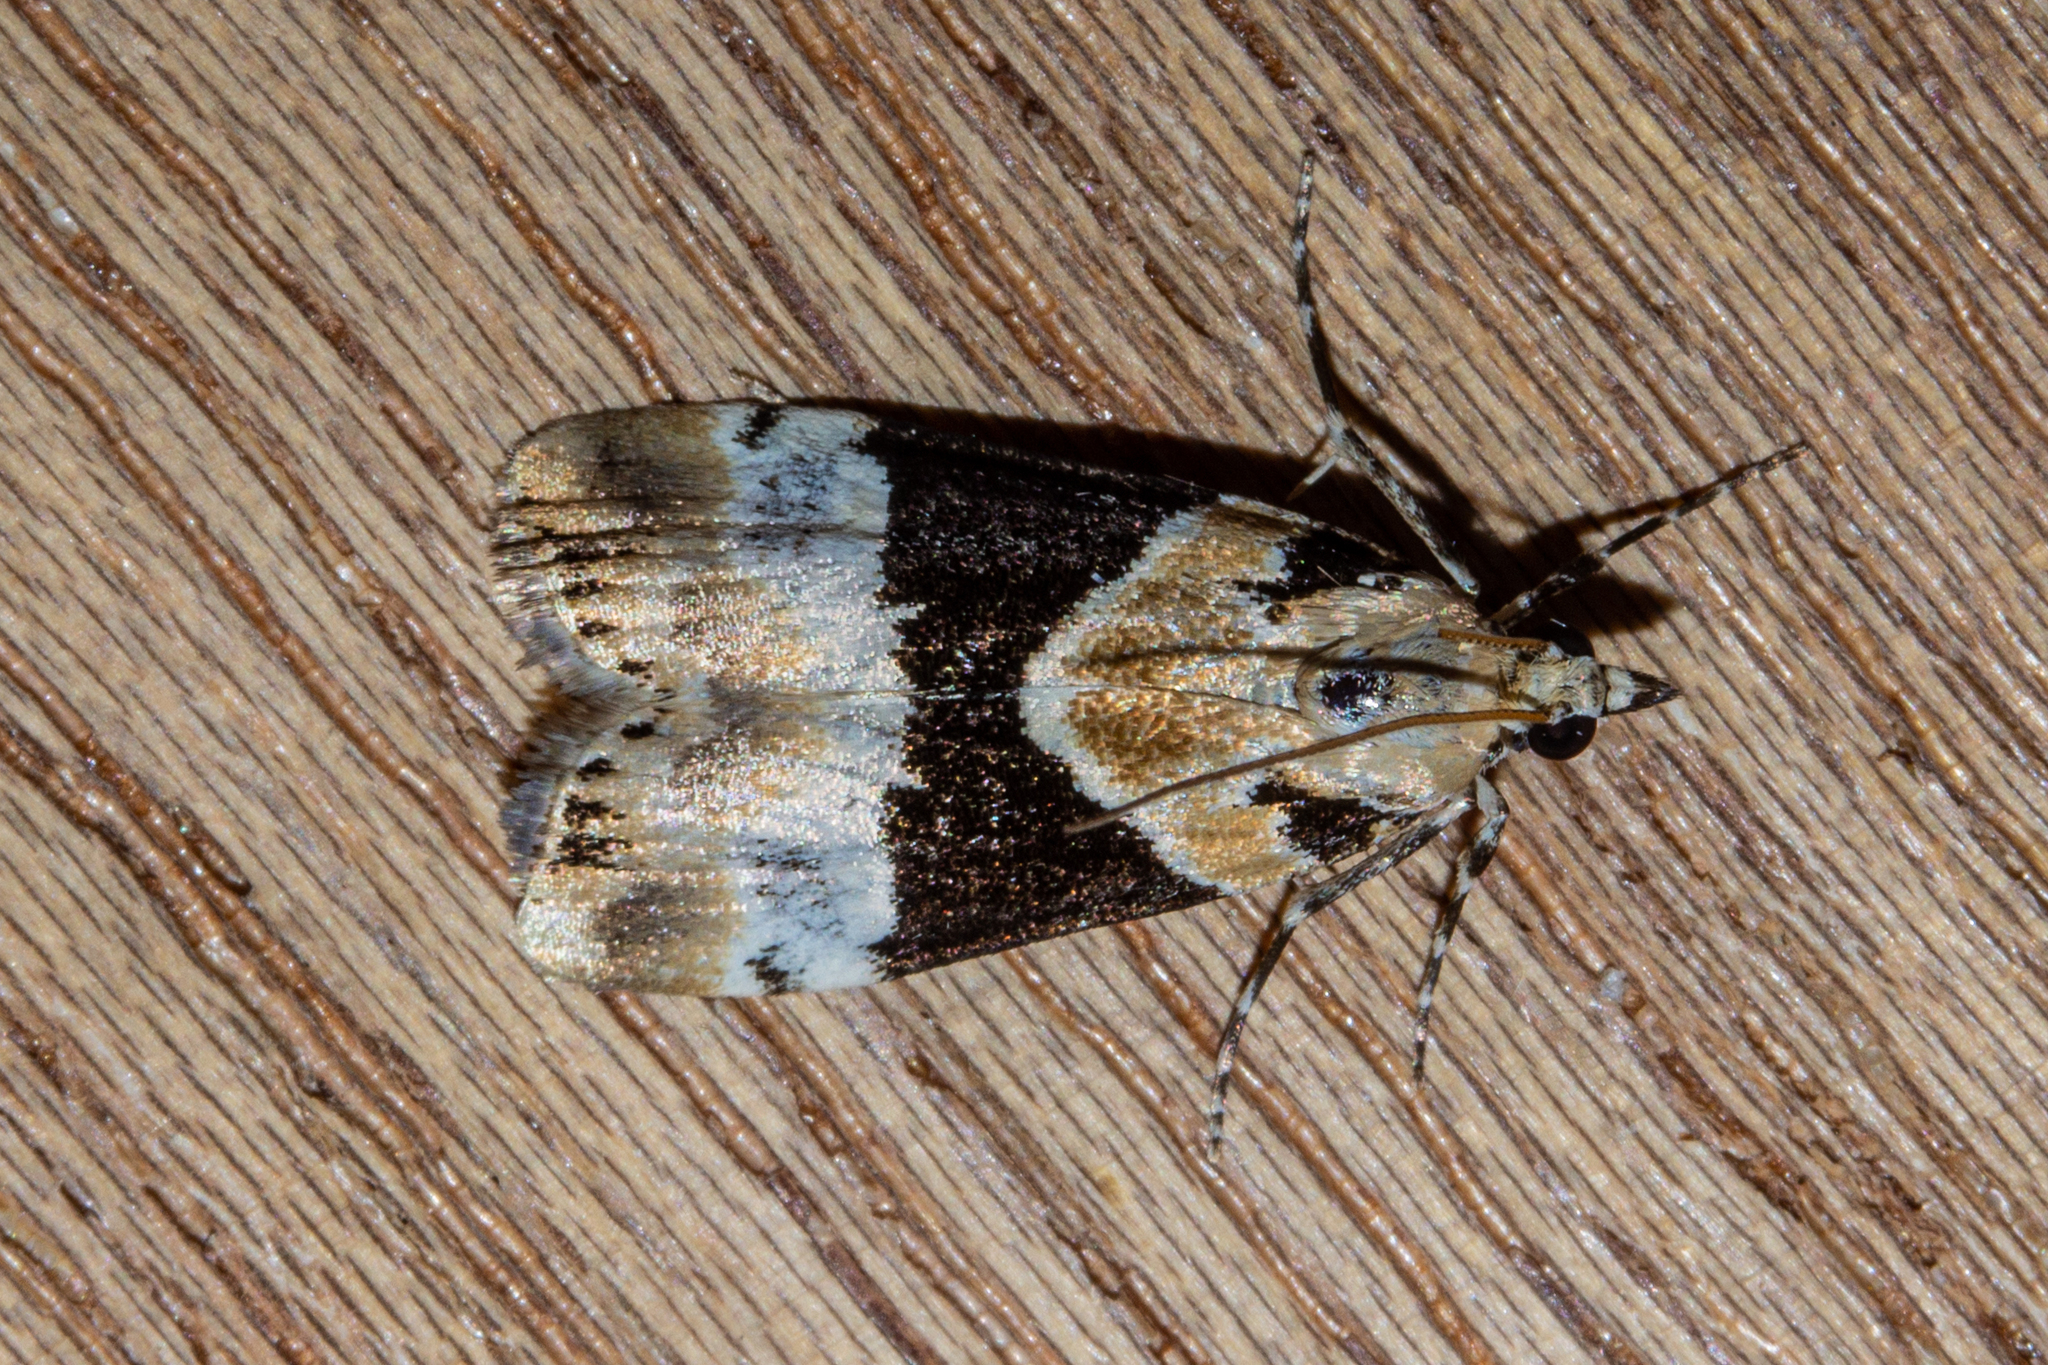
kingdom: Animalia
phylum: Arthropoda
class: Insecta
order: Lepidoptera
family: Crambidae
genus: Eudonia
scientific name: Eudonia aspidota
